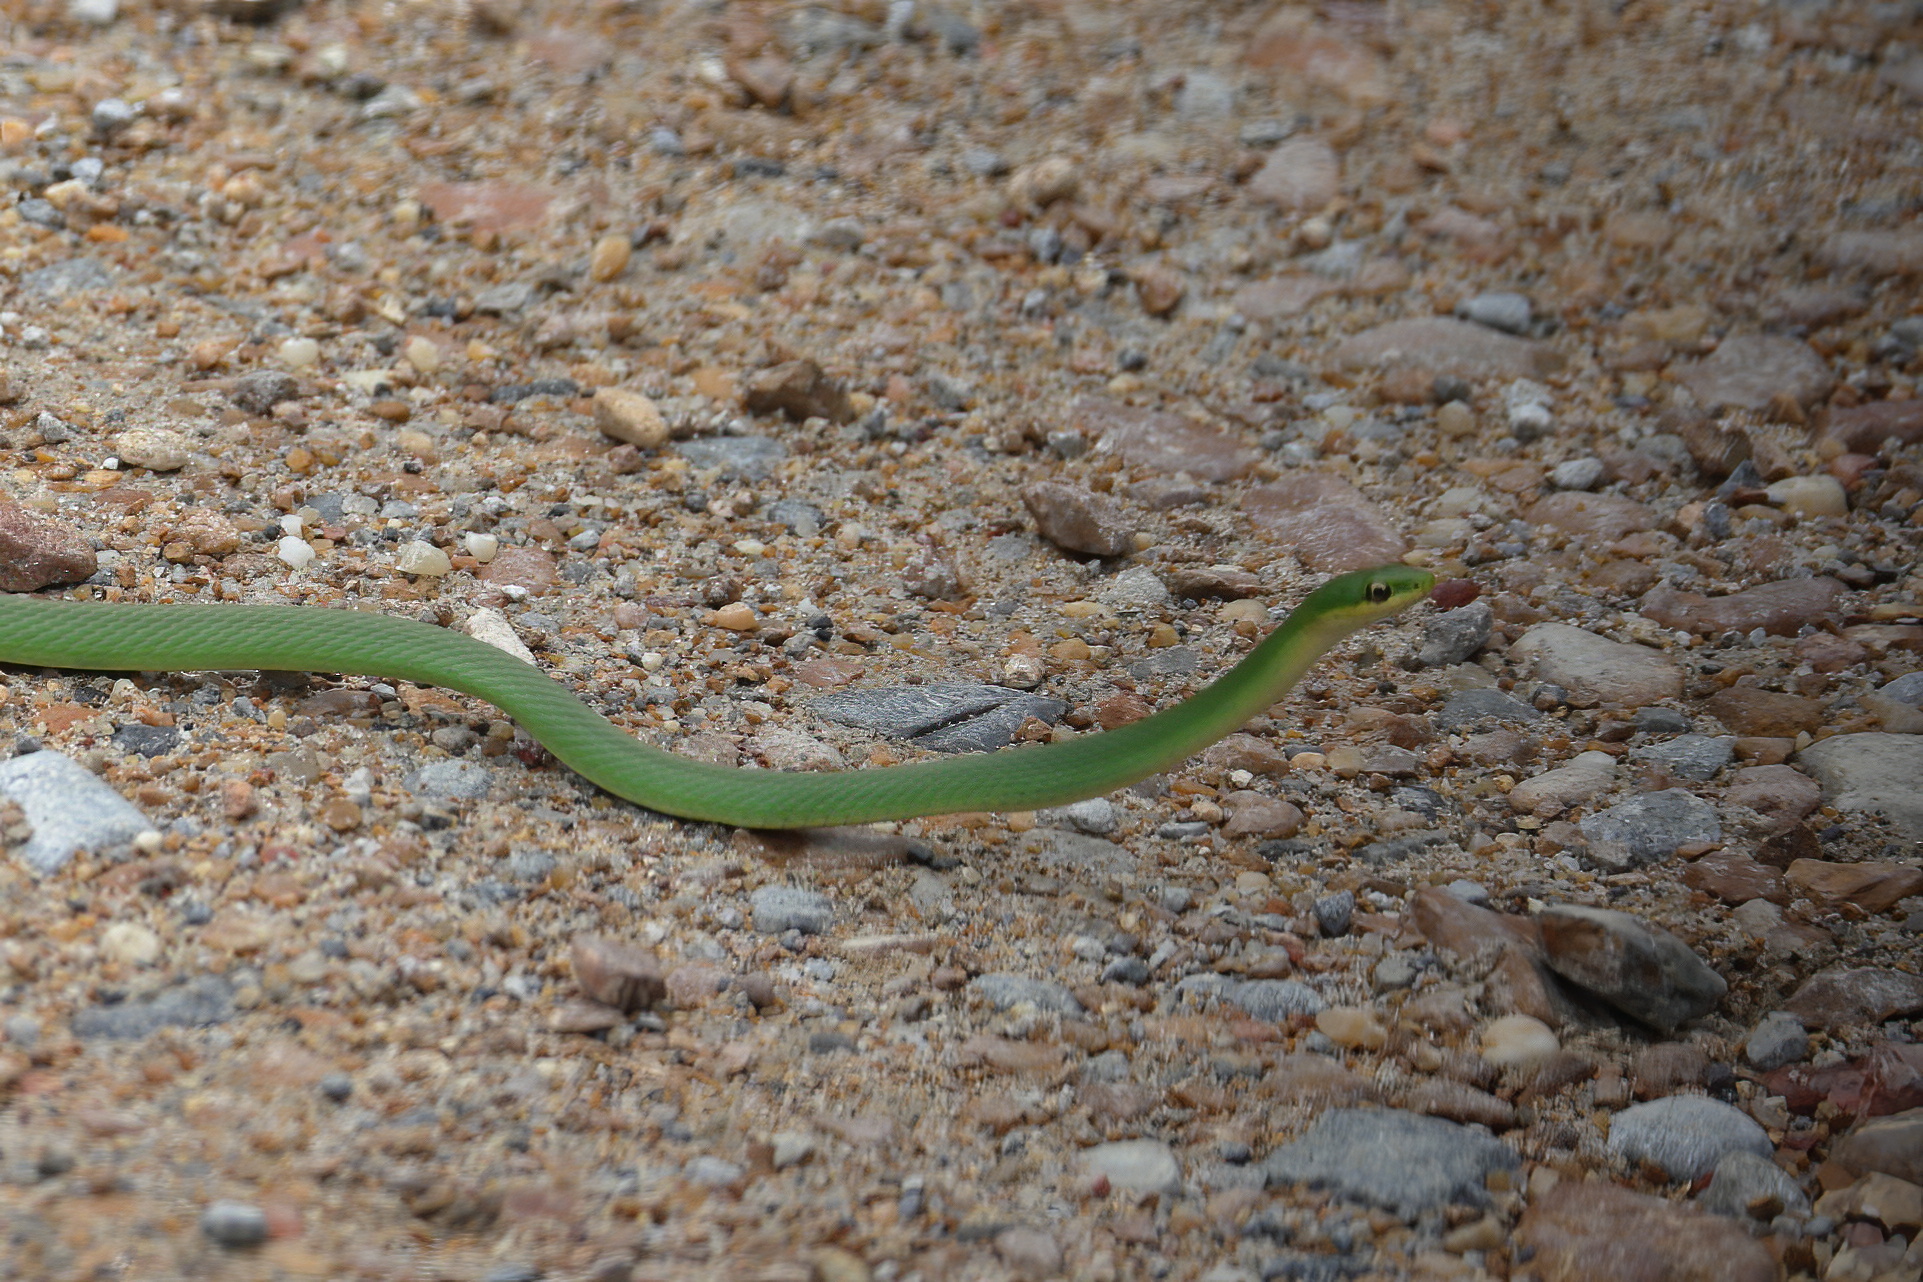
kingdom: Animalia
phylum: Chordata
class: Squamata
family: Colubridae
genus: Opheodrys
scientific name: Opheodrys aestivus
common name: Rough greensnake
